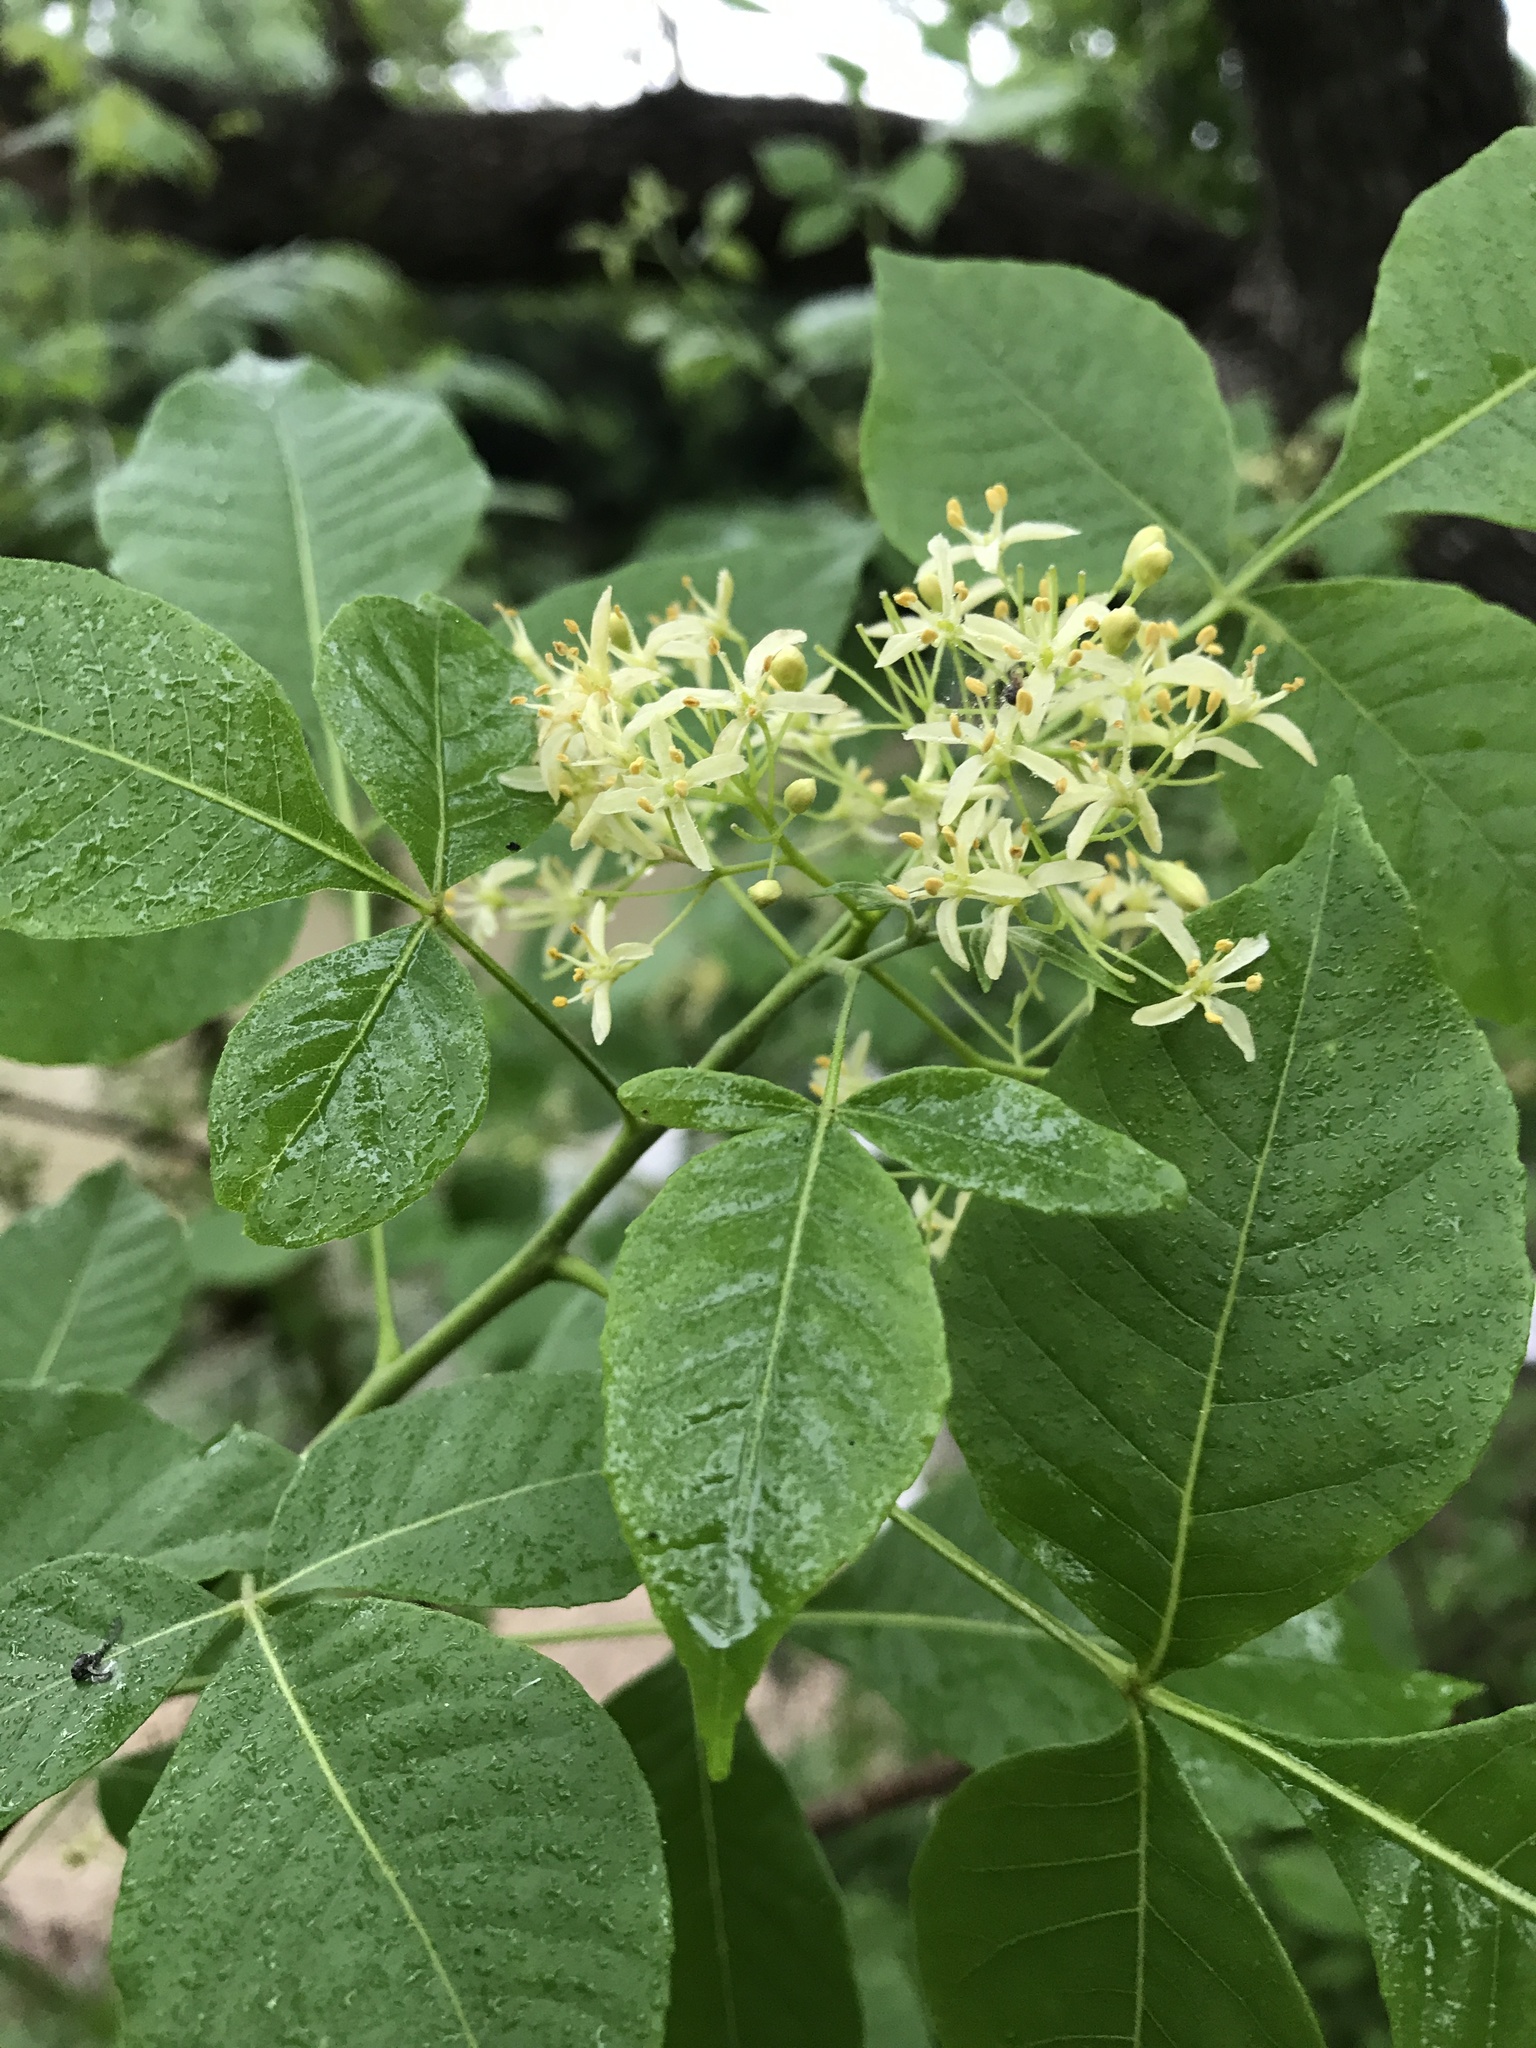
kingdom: Plantae
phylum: Tracheophyta
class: Magnoliopsida
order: Sapindales
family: Rutaceae
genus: Ptelea
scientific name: Ptelea trifoliata
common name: Common hop-tree
